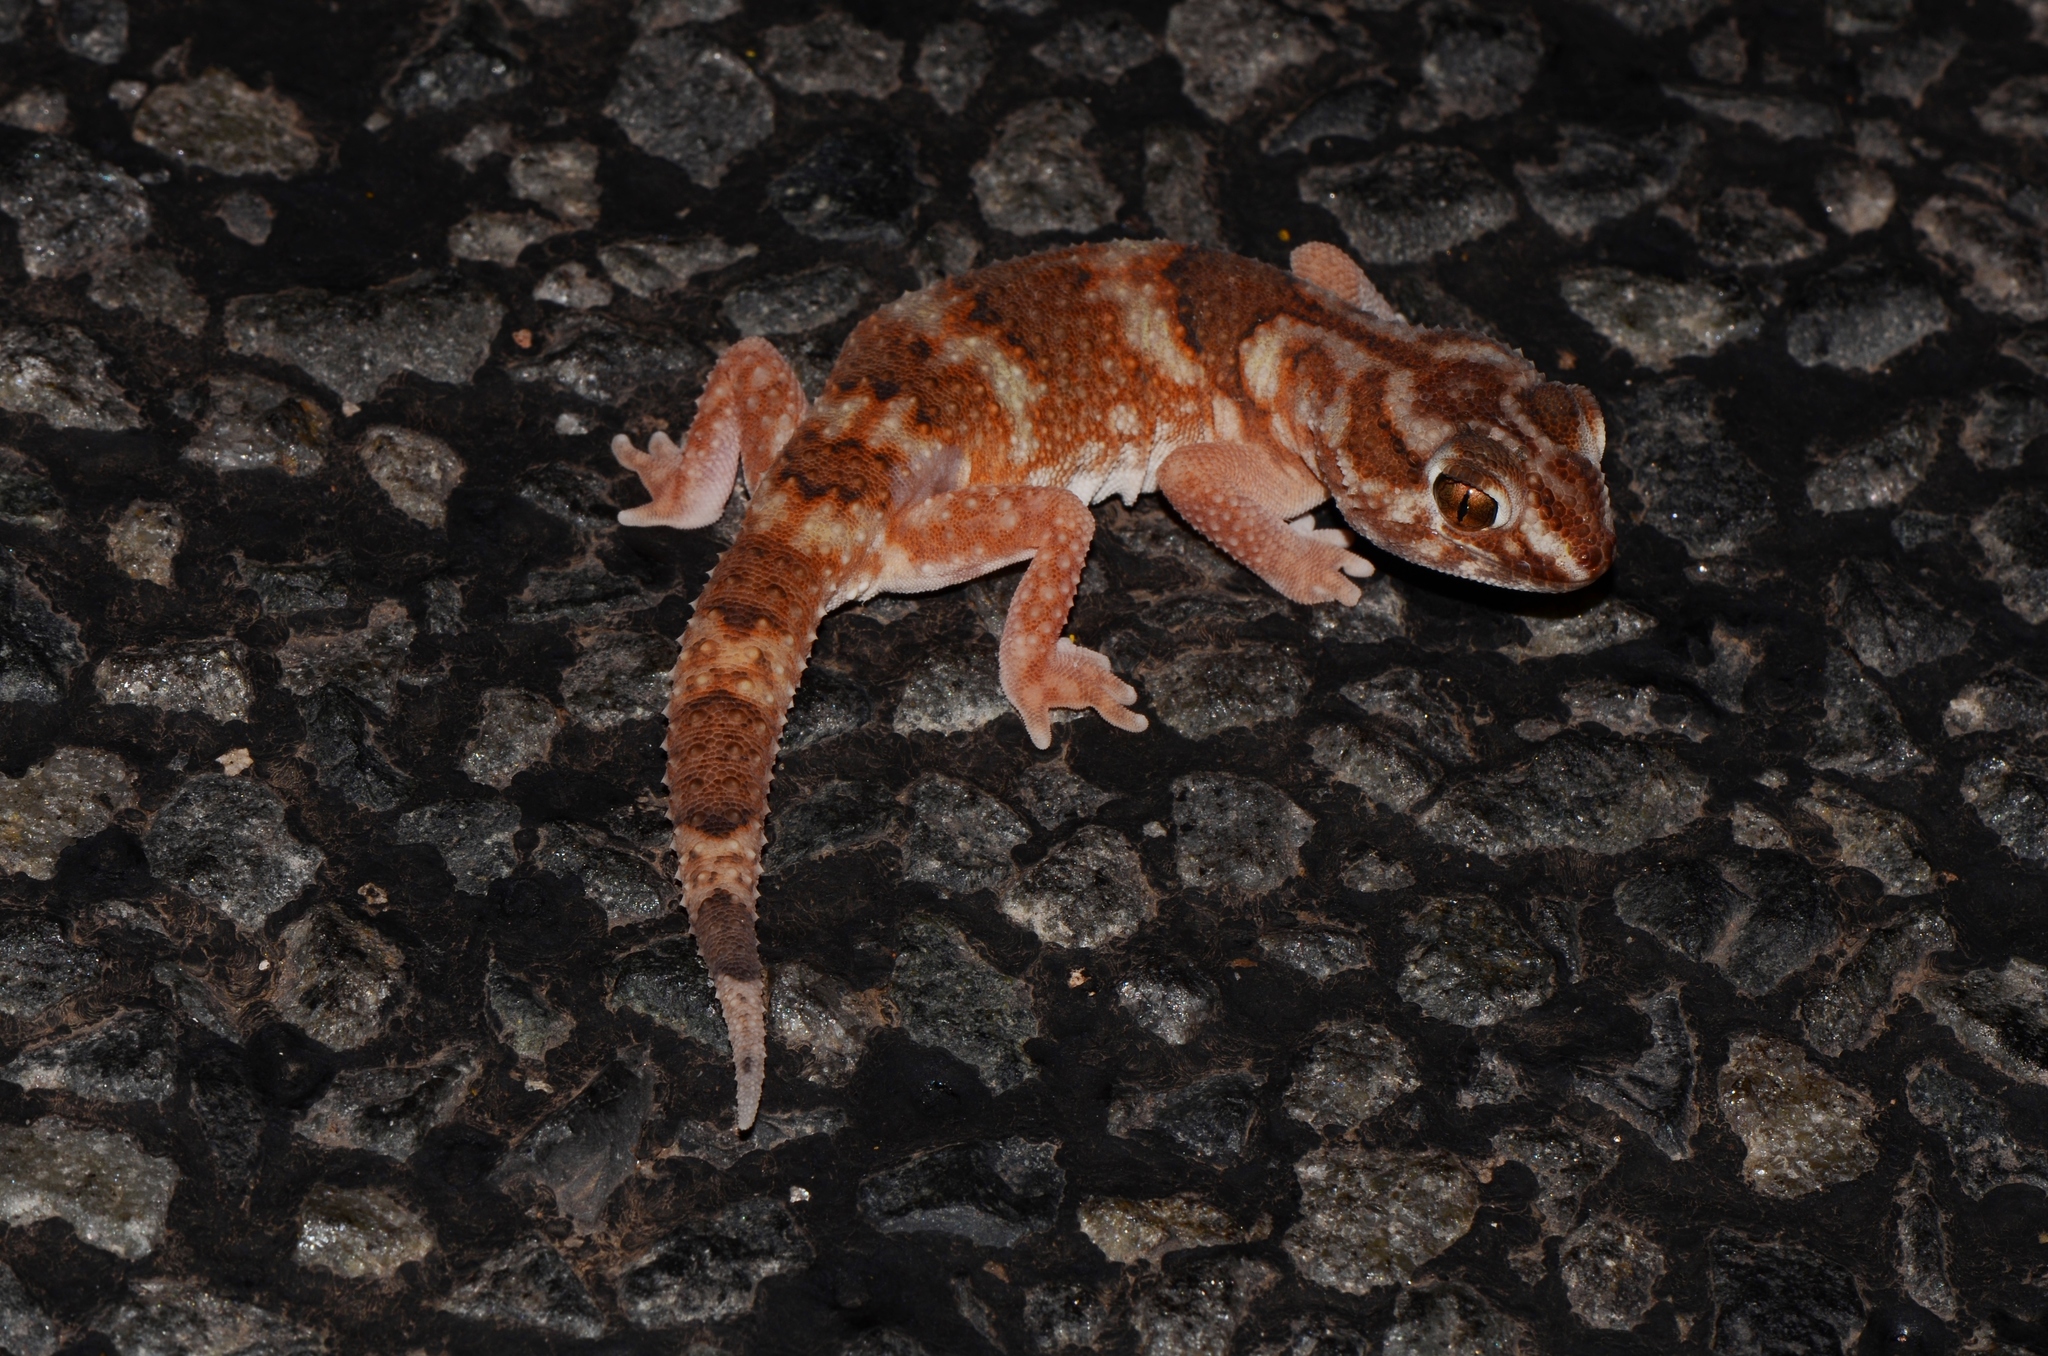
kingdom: Animalia
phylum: Chordata
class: Squamata
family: Gekkonidae
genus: Chondrodactylus
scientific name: Chondrodactylus angulifer
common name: Common giant ground gecko
